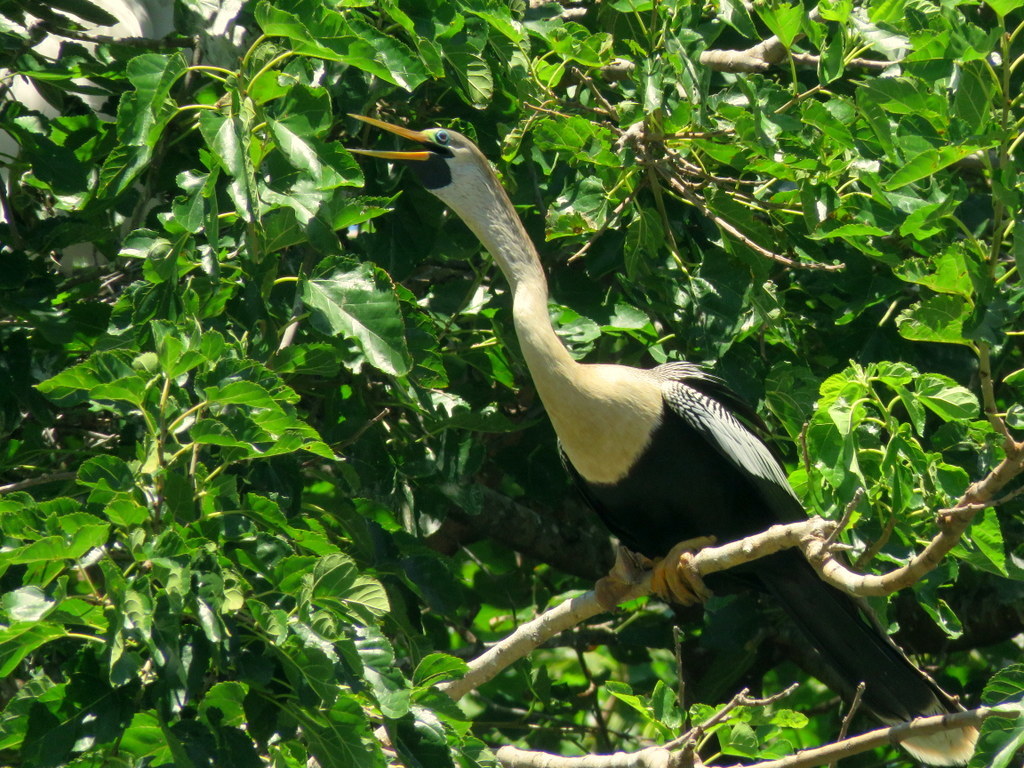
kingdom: Animalia
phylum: Chordata
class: Aves
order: Suliformes
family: Anhingidae
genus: Anhinga
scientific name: Anhinga anhinga
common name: Anhinga
